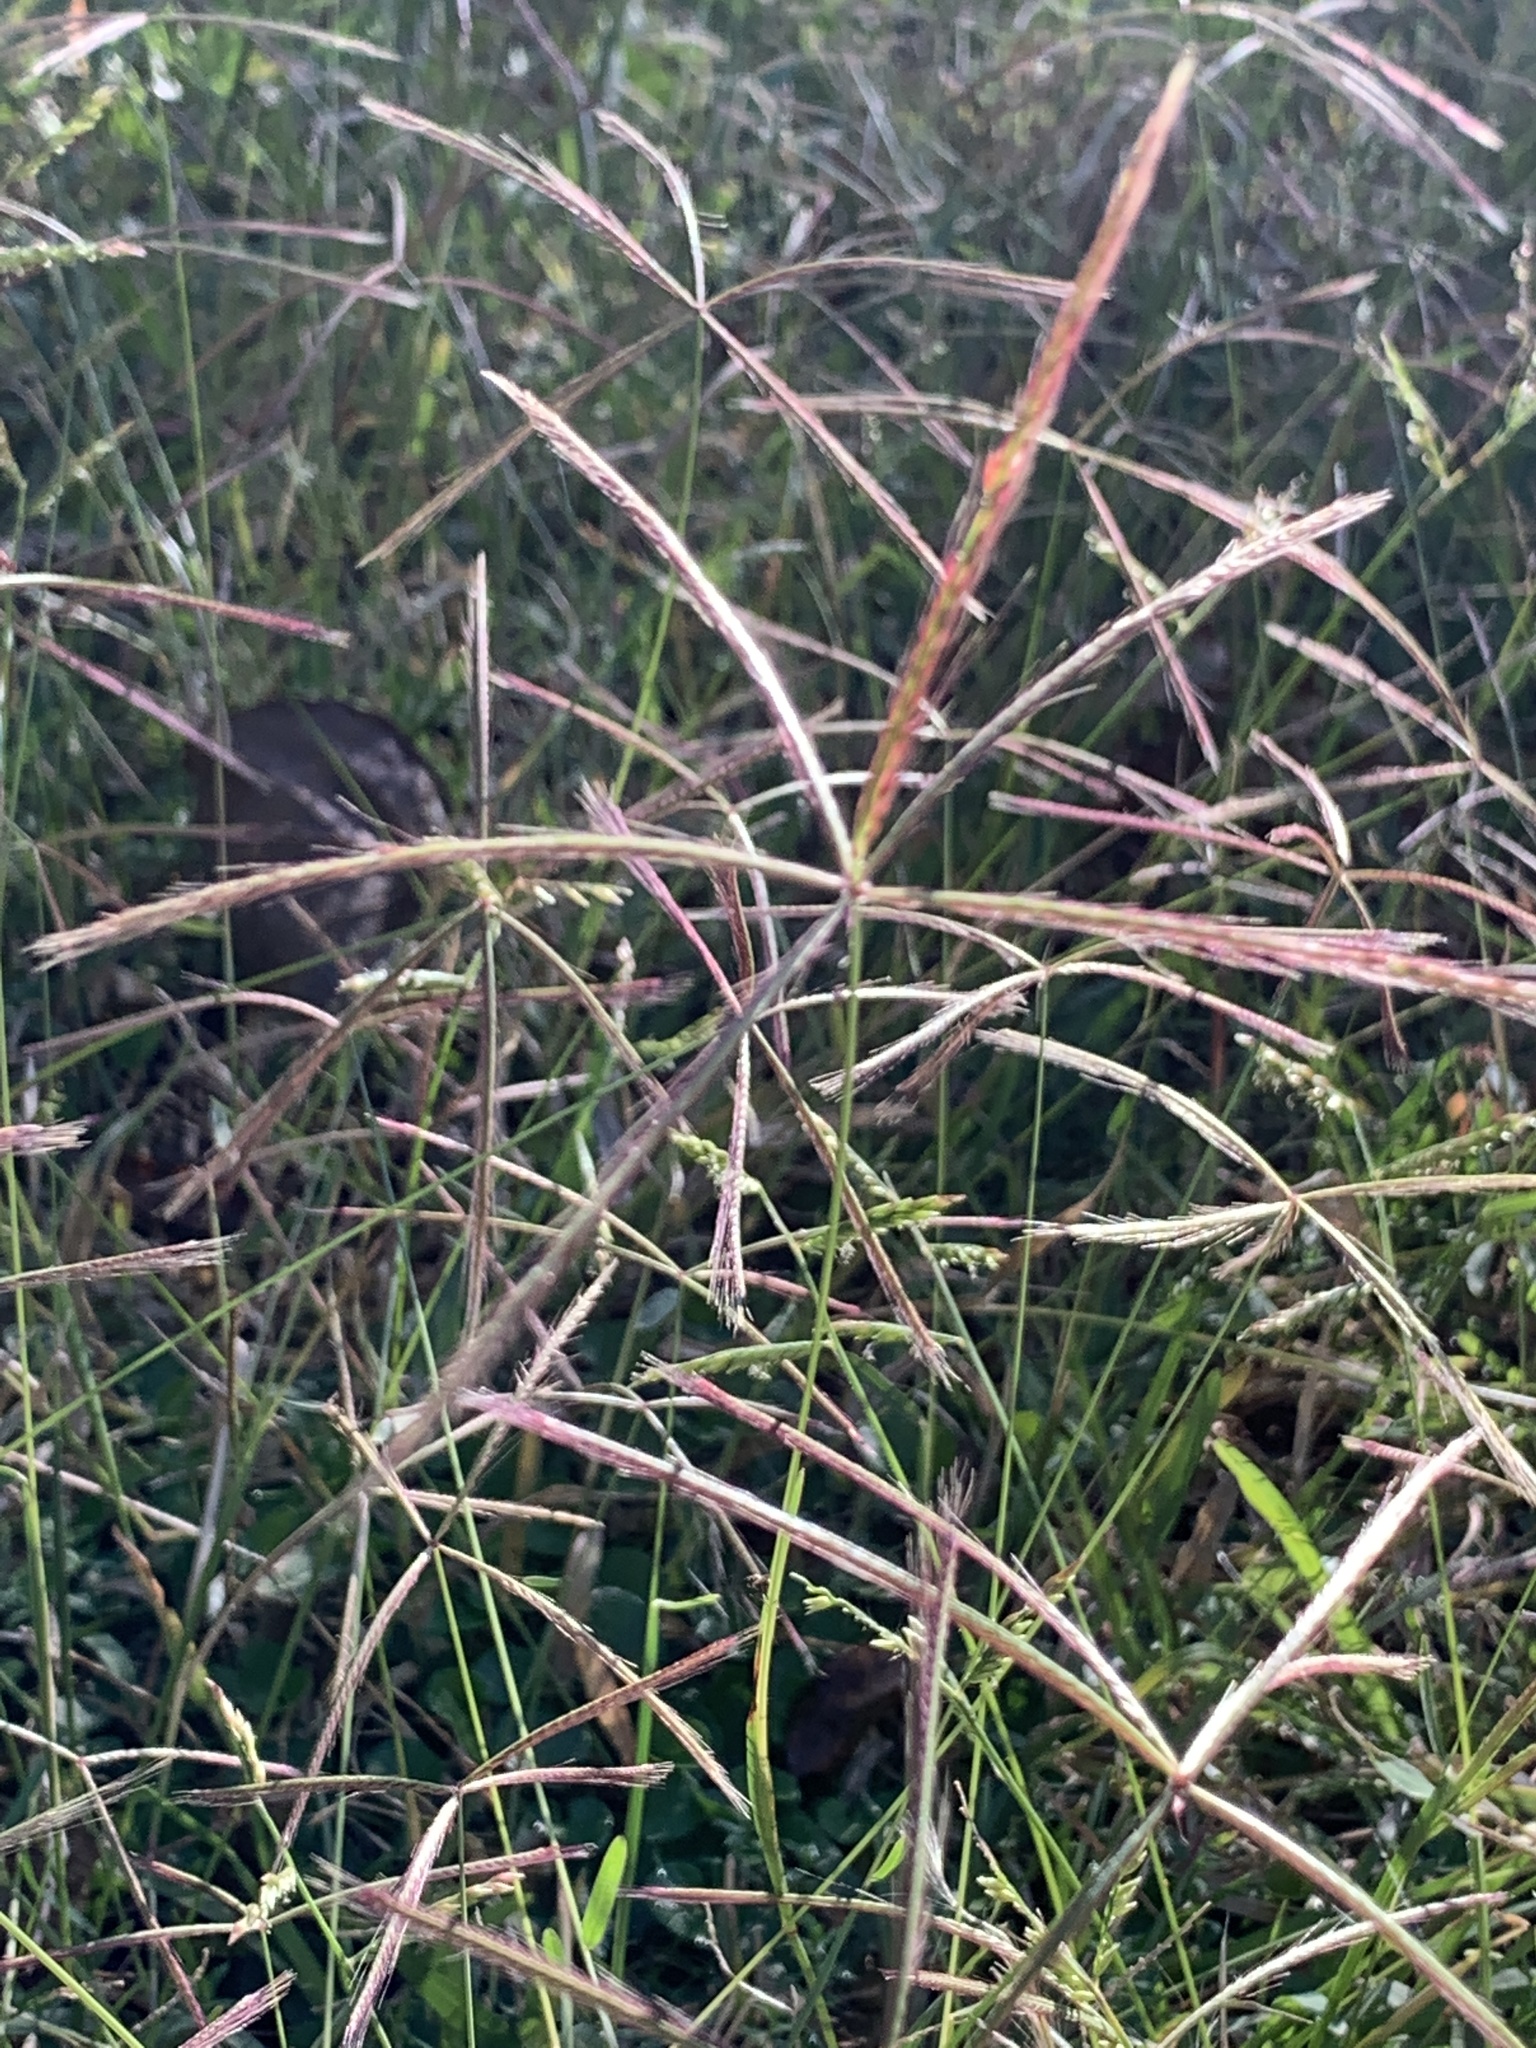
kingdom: Plantae
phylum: Tracheophyta
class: Liliopsida
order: Poales
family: Poaceae
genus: Chloris
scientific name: Chloris pycnothrix
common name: Spiderweb chloris
